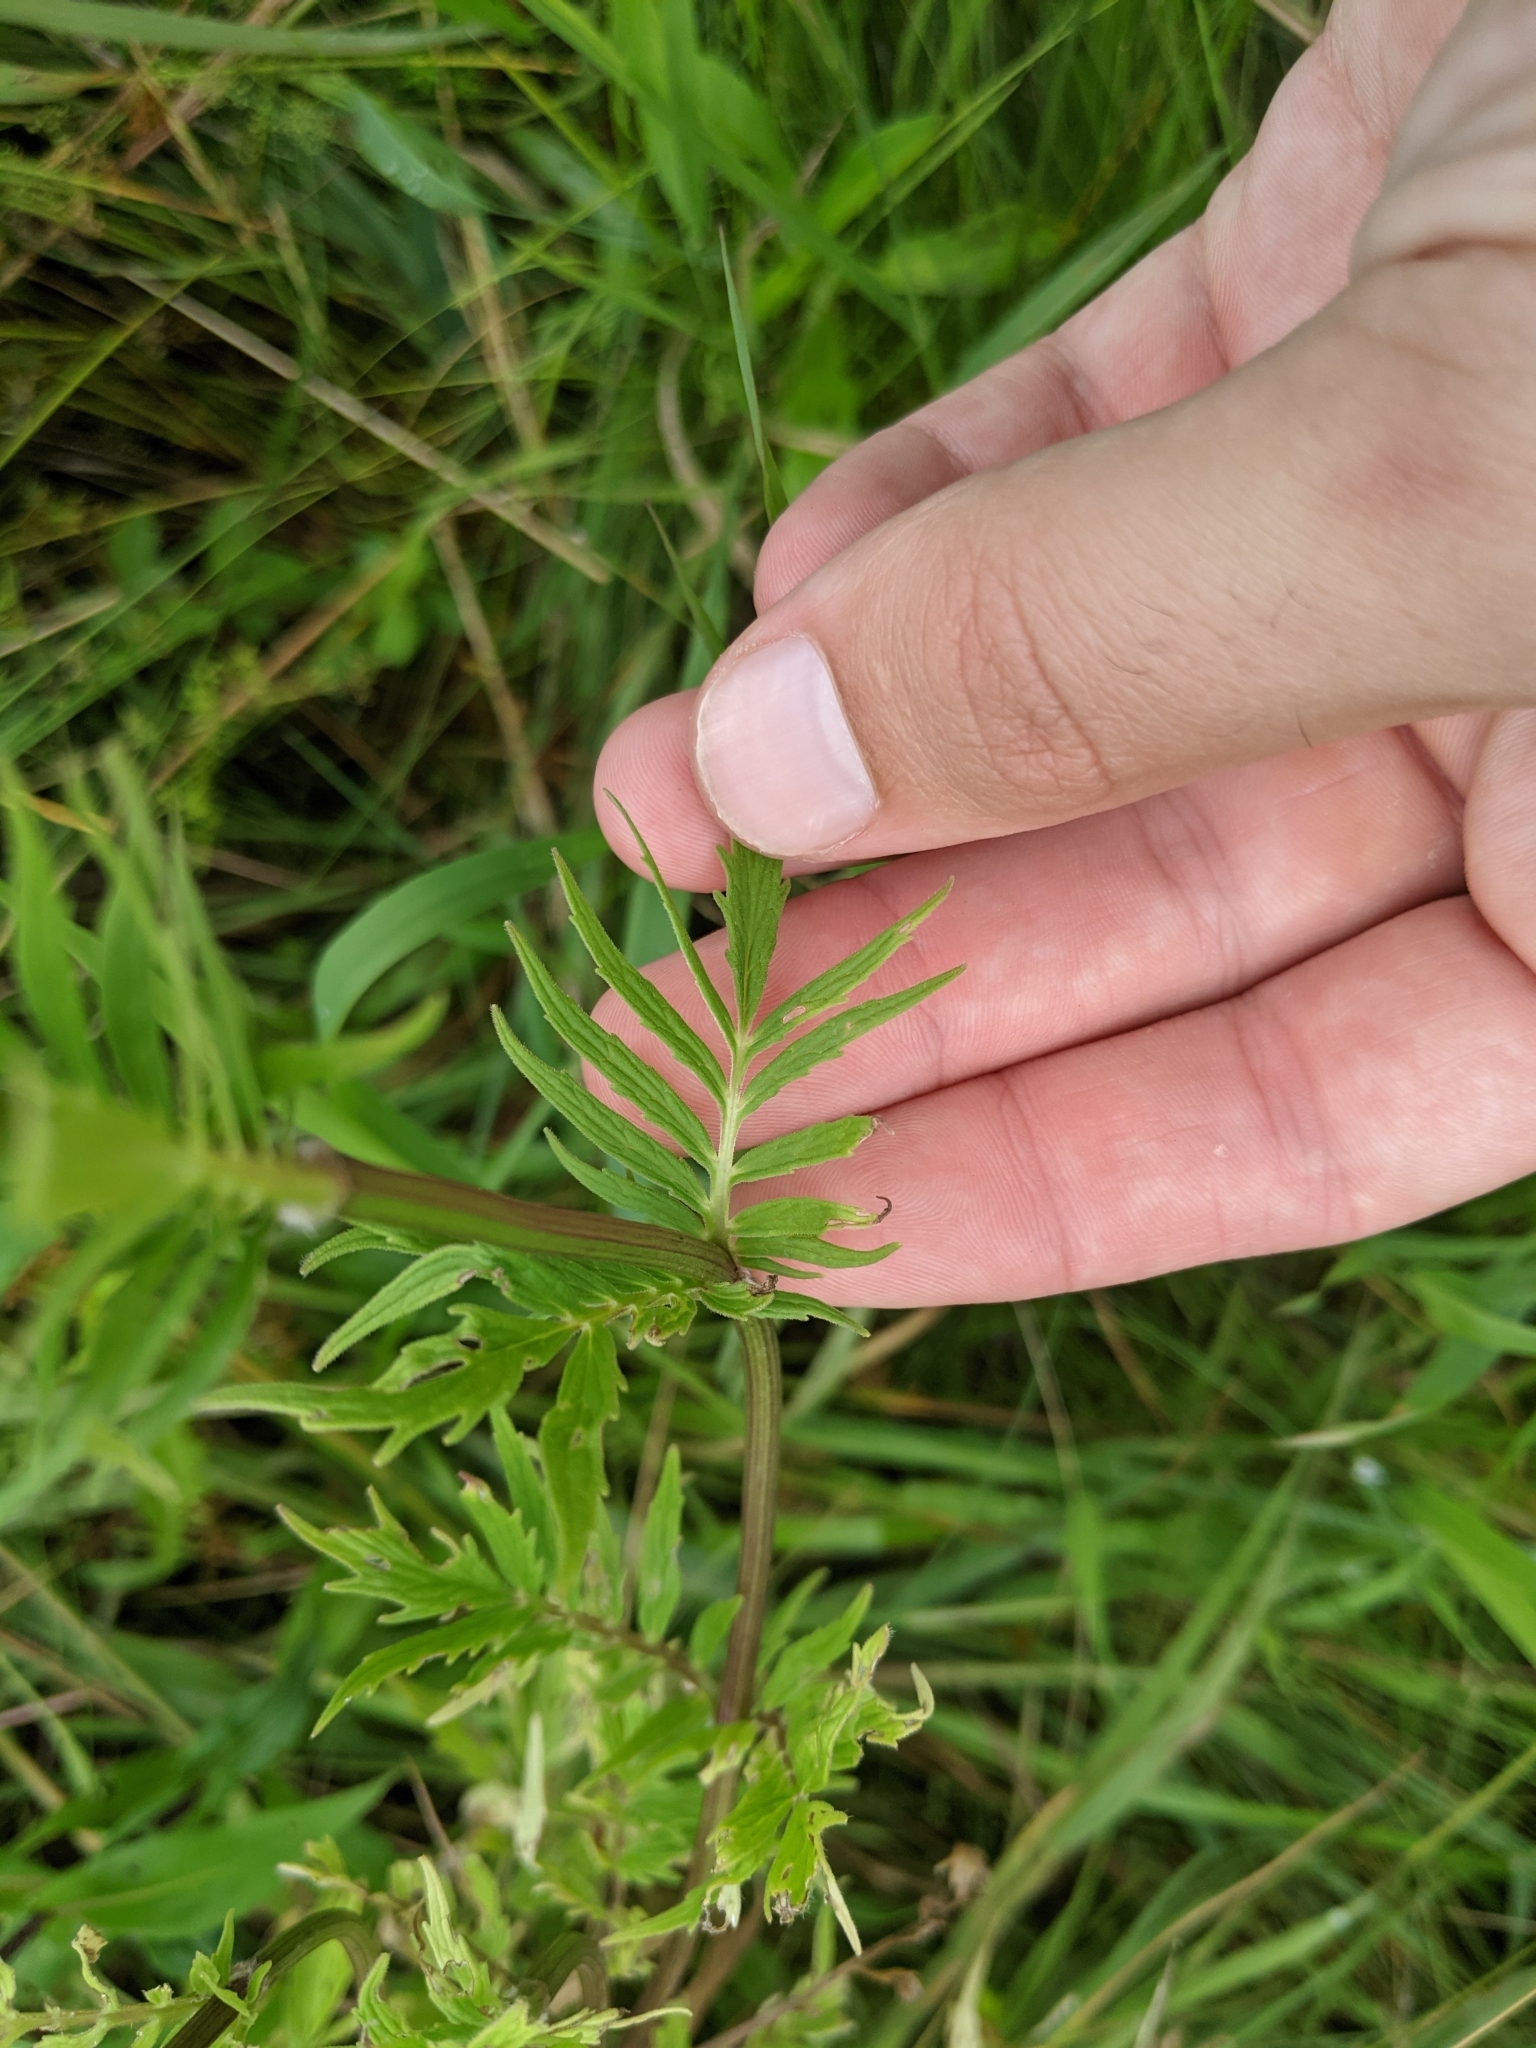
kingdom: Plantae
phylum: Tracheophyta
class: Magnoliopsida
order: Dipsacales
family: Caprifoliaceae
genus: Valeriana
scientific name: Valeriana officinalis
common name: Common valerian
